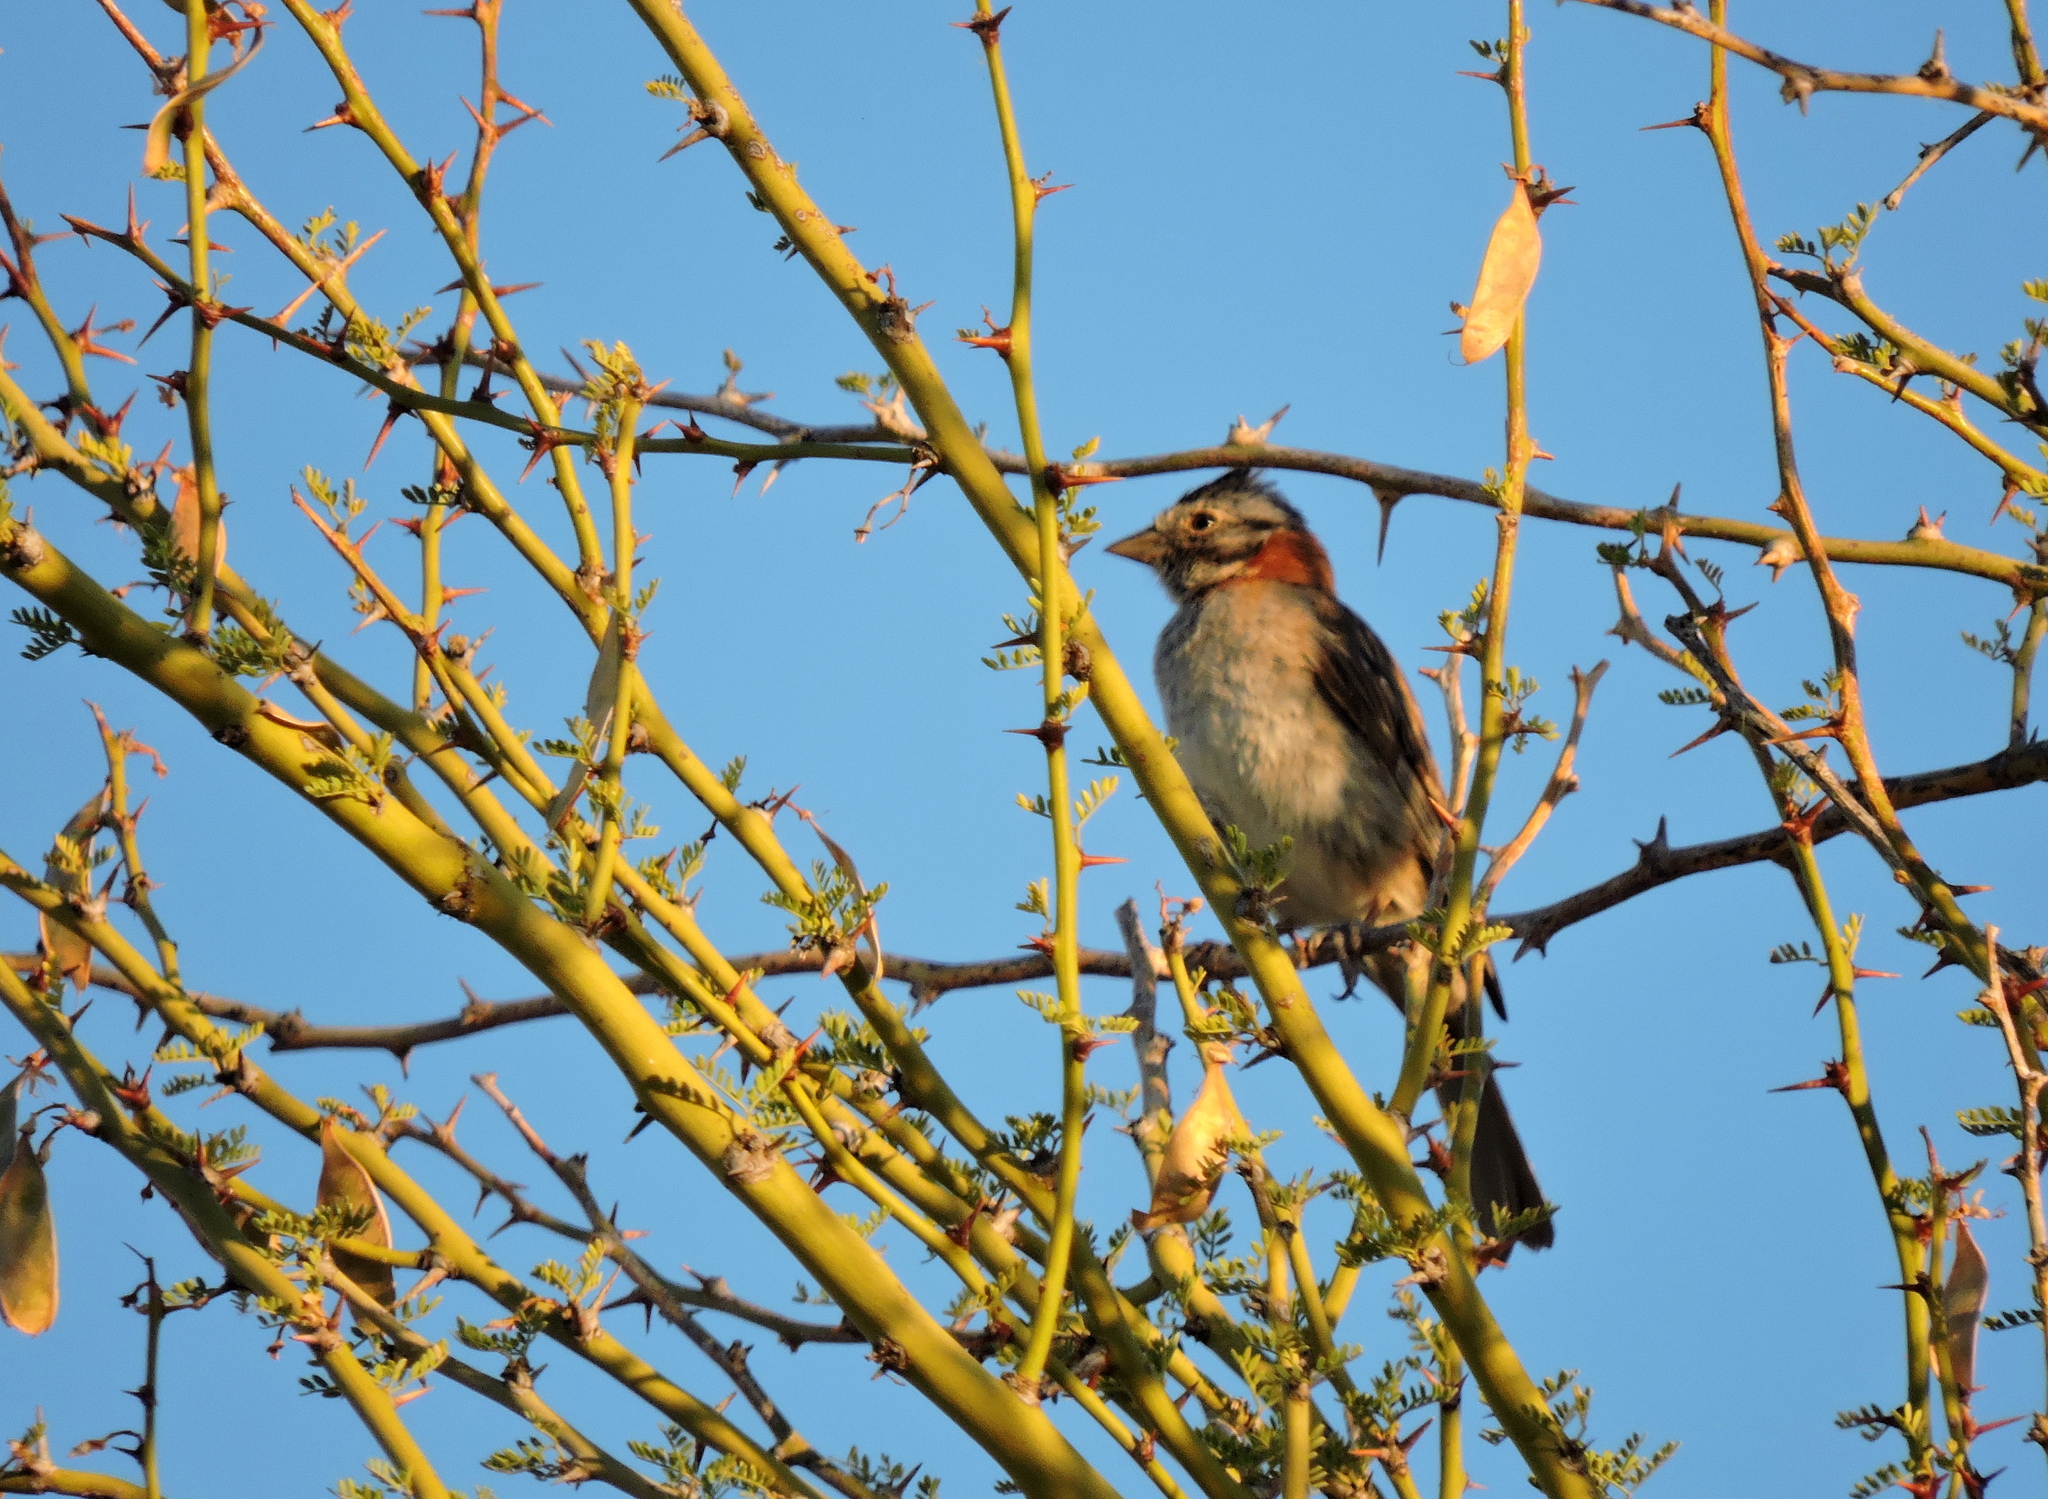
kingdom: Animalia
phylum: Chordata
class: Aves
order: Passeriformes
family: Passerellidae
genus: Zonotrichia
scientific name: Zonotrichia capensis
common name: Rufous-collared sparrow
